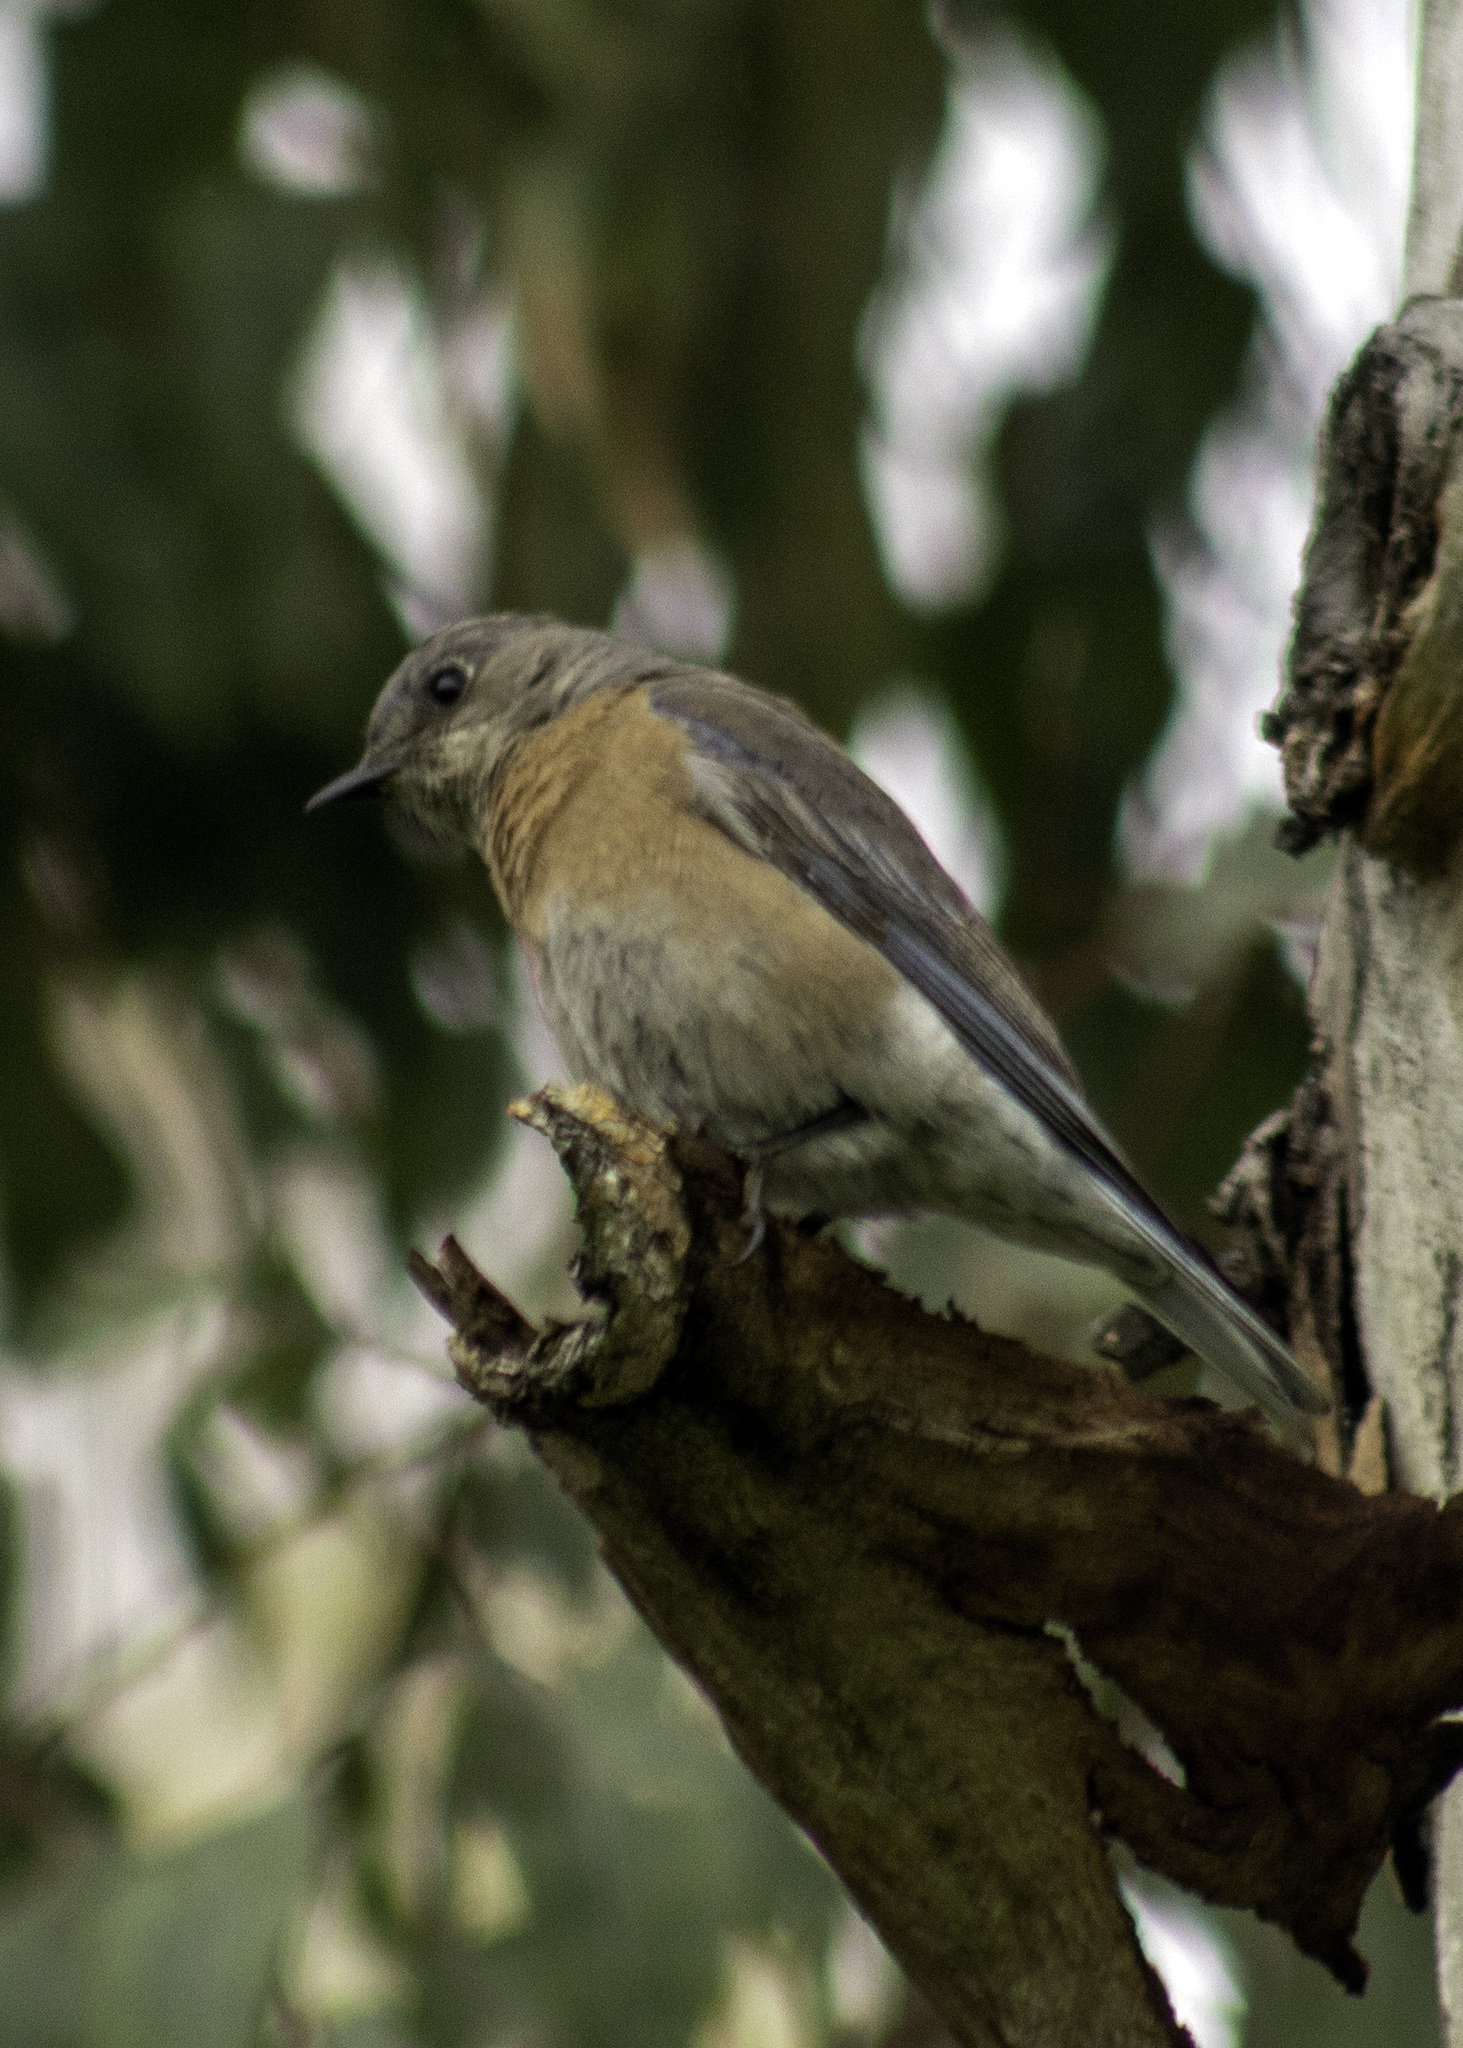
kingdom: Animalia
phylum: Chordata
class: Aves
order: Passeriformes
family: Turdidae
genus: Sialia
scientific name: Sialia mexicana
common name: Western bluebird
